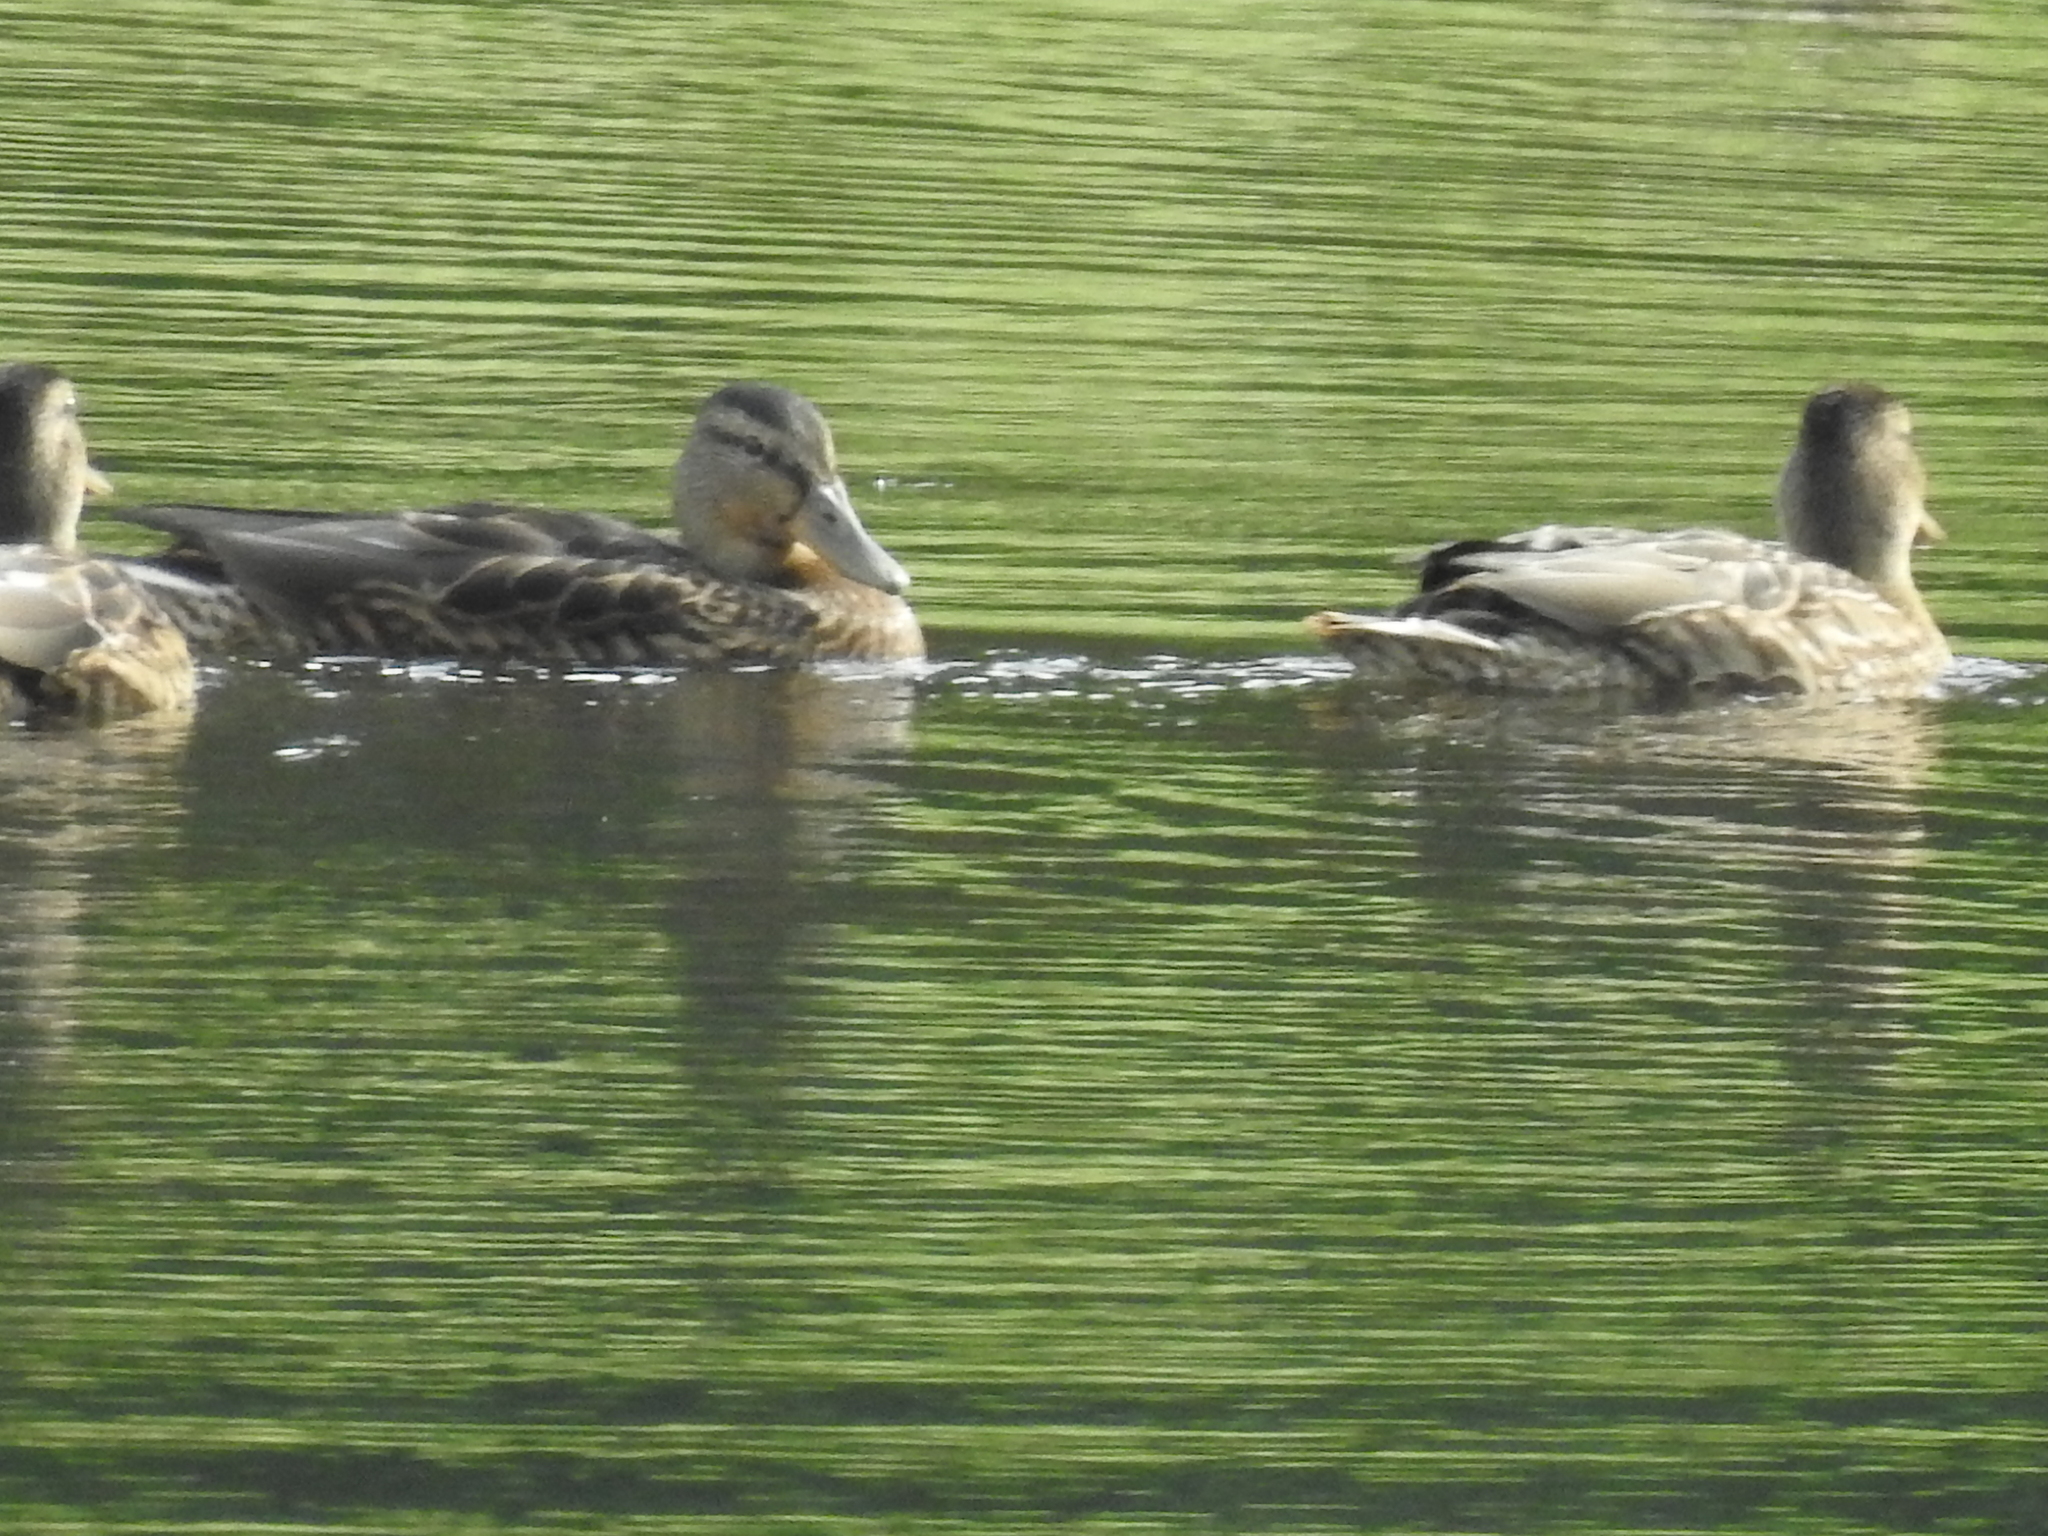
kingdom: Animalia
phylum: Chordata
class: Aves
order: Anseriformes
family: Anatidae
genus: Anas
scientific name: Anas platyrhynchos
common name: Mallard
